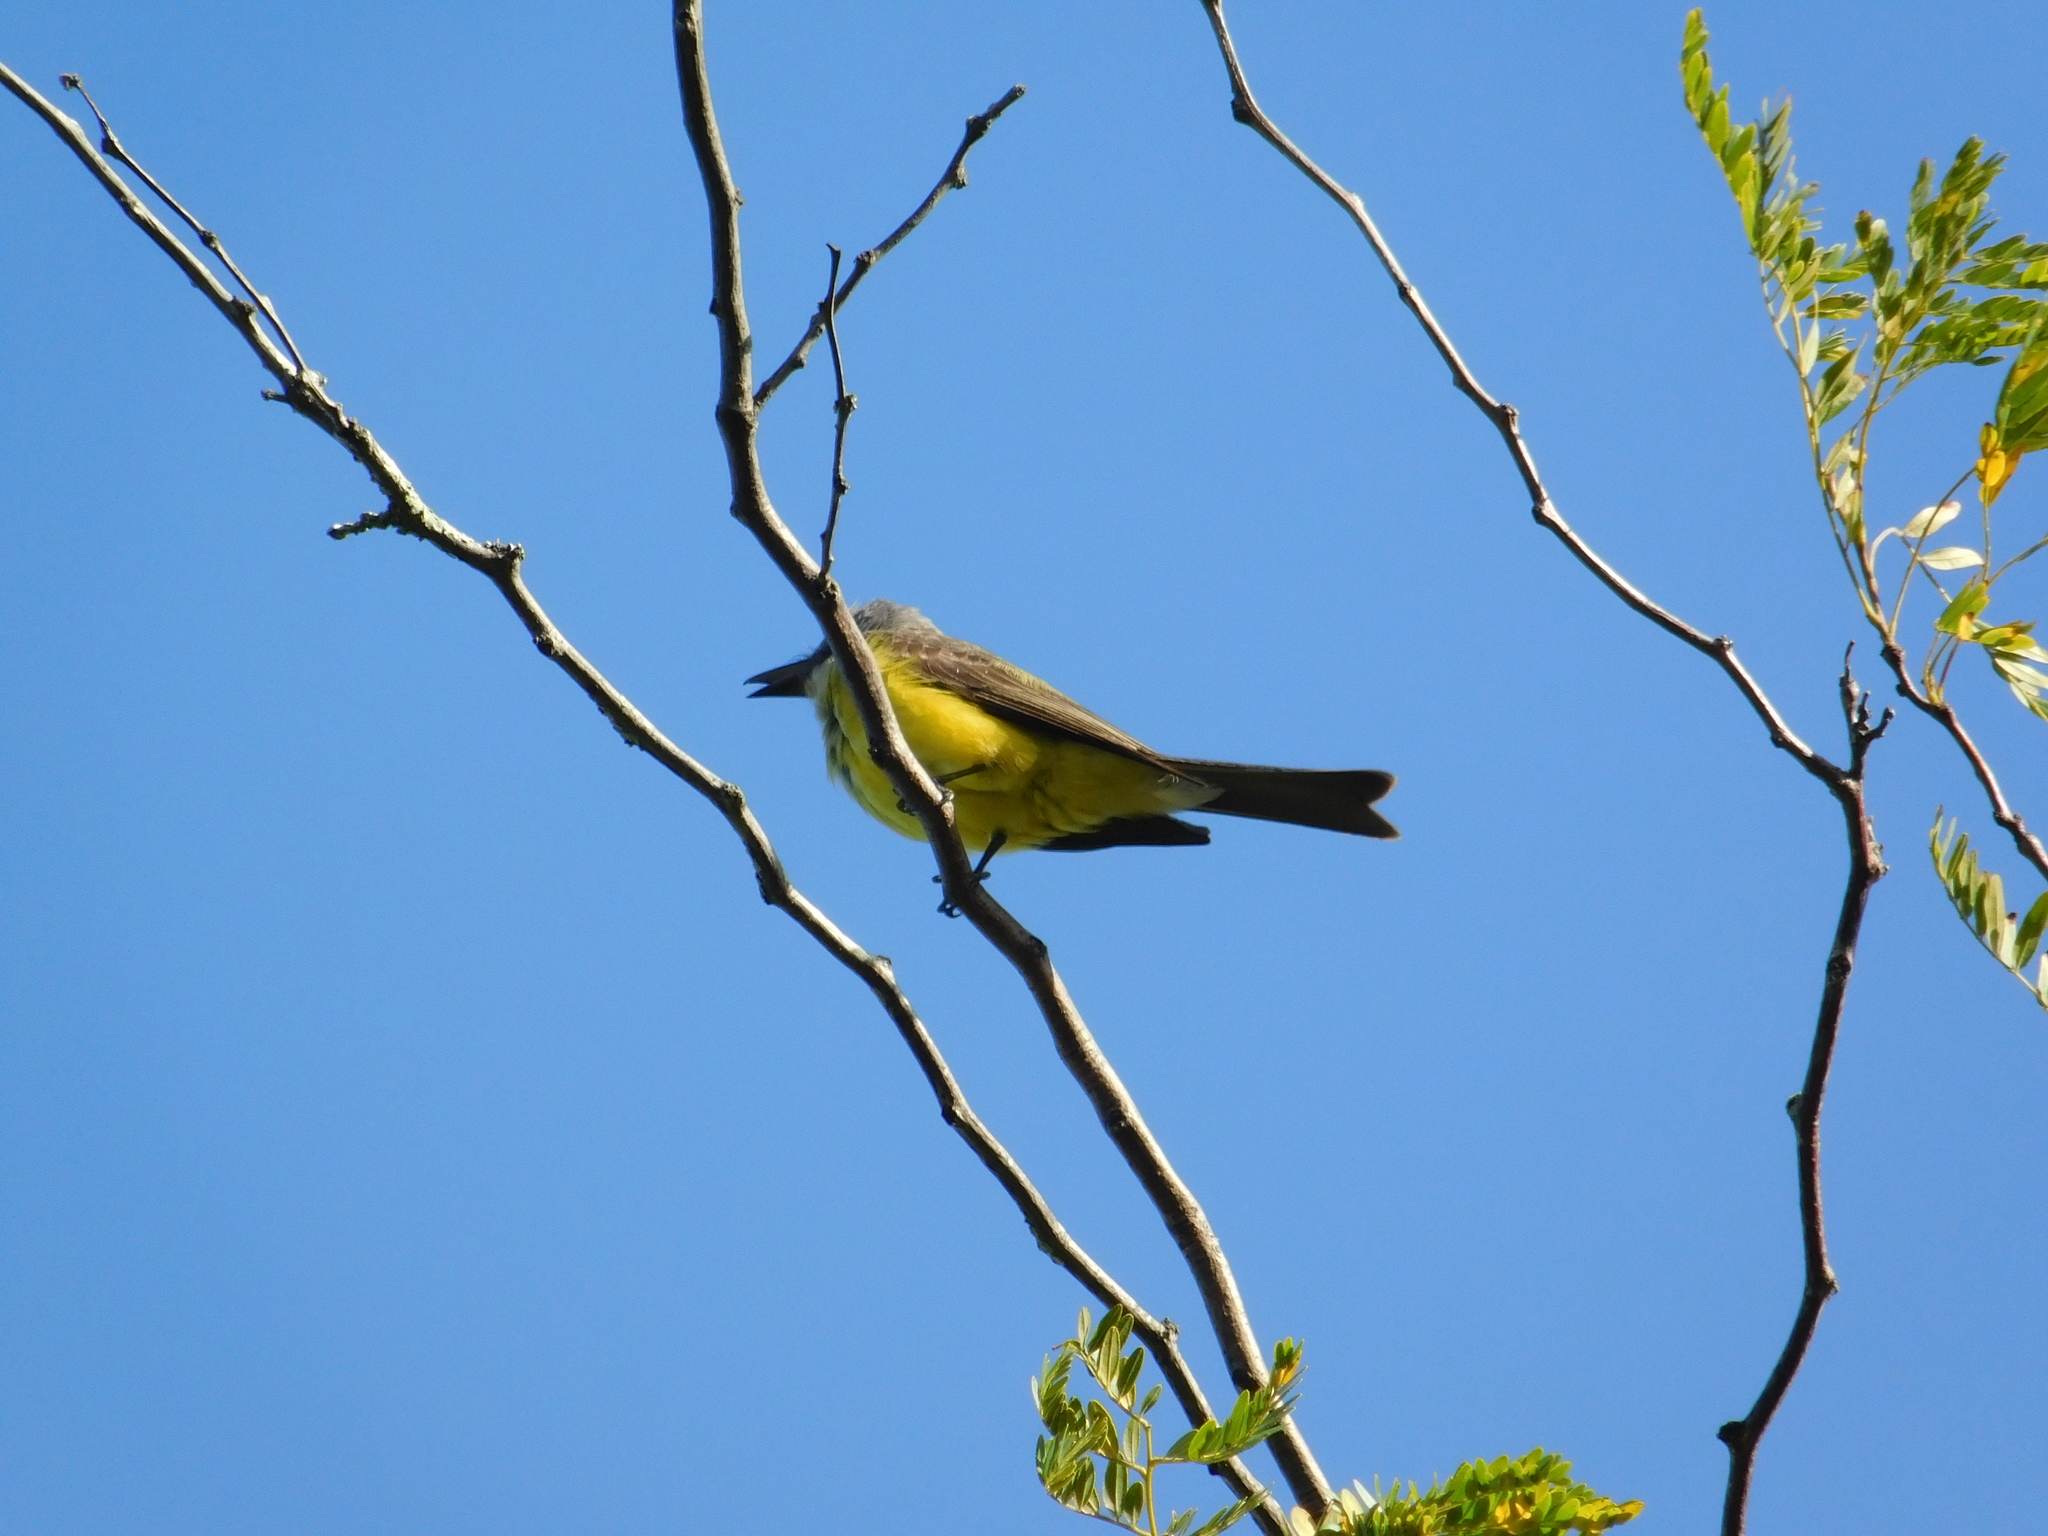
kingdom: Animalia
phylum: Chordata
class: Aves
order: Passeriformes
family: Tyrannidae
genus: Tyrannus
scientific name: Tyrannus melancholicus
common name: Tropical kingbird
